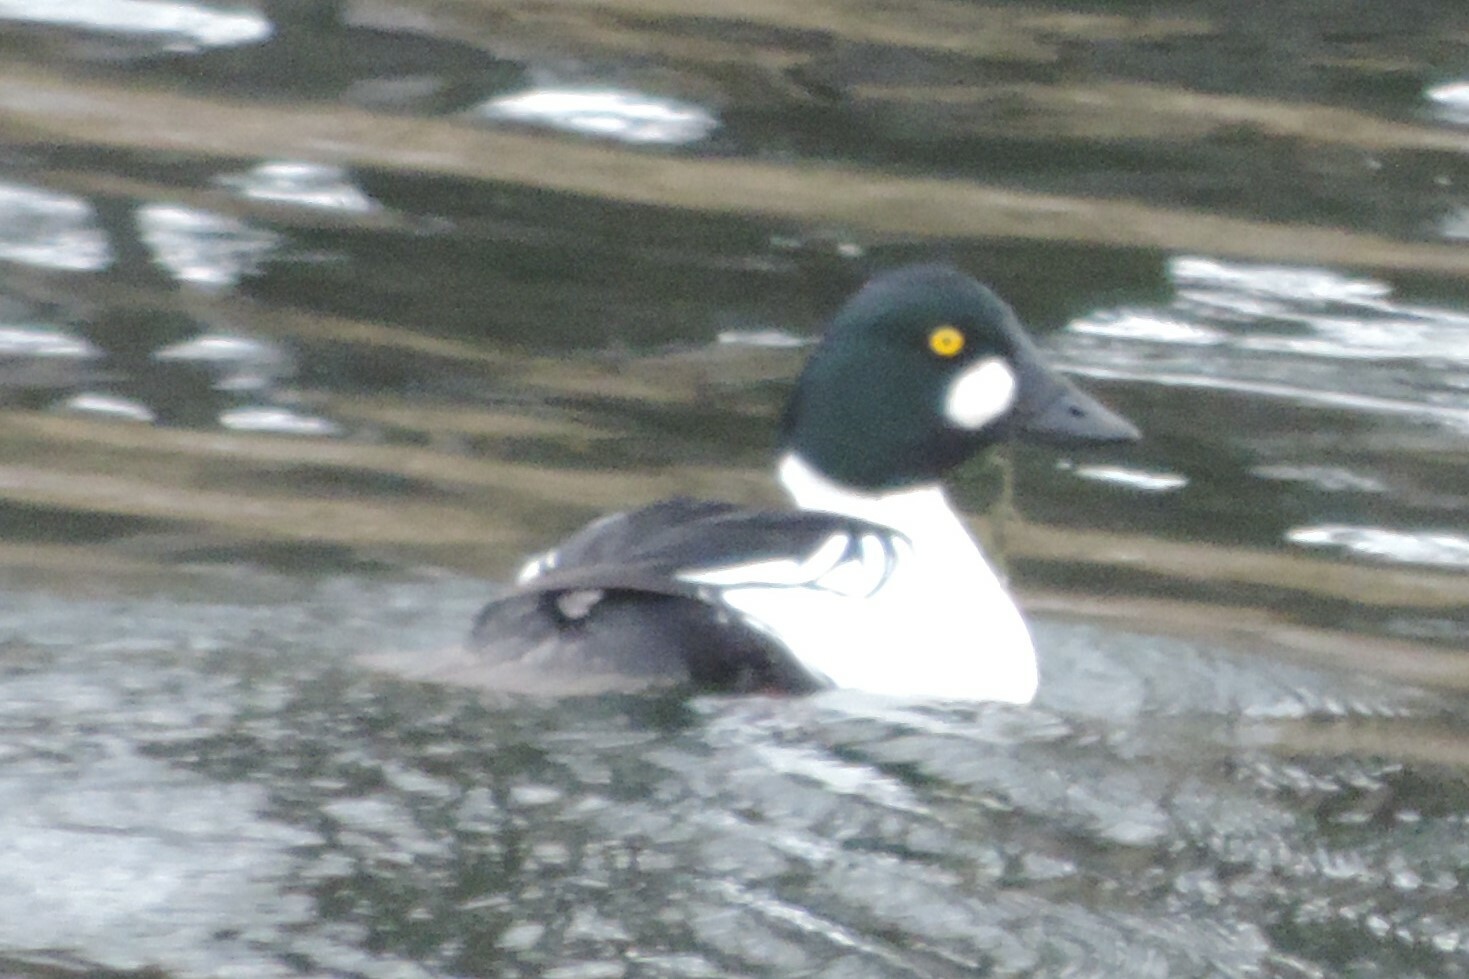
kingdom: Animalia
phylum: Chordata
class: Aves
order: Anseriformes
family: Anatidae
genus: Bucephala
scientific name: Bucephala clangula
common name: Common goldeneye
